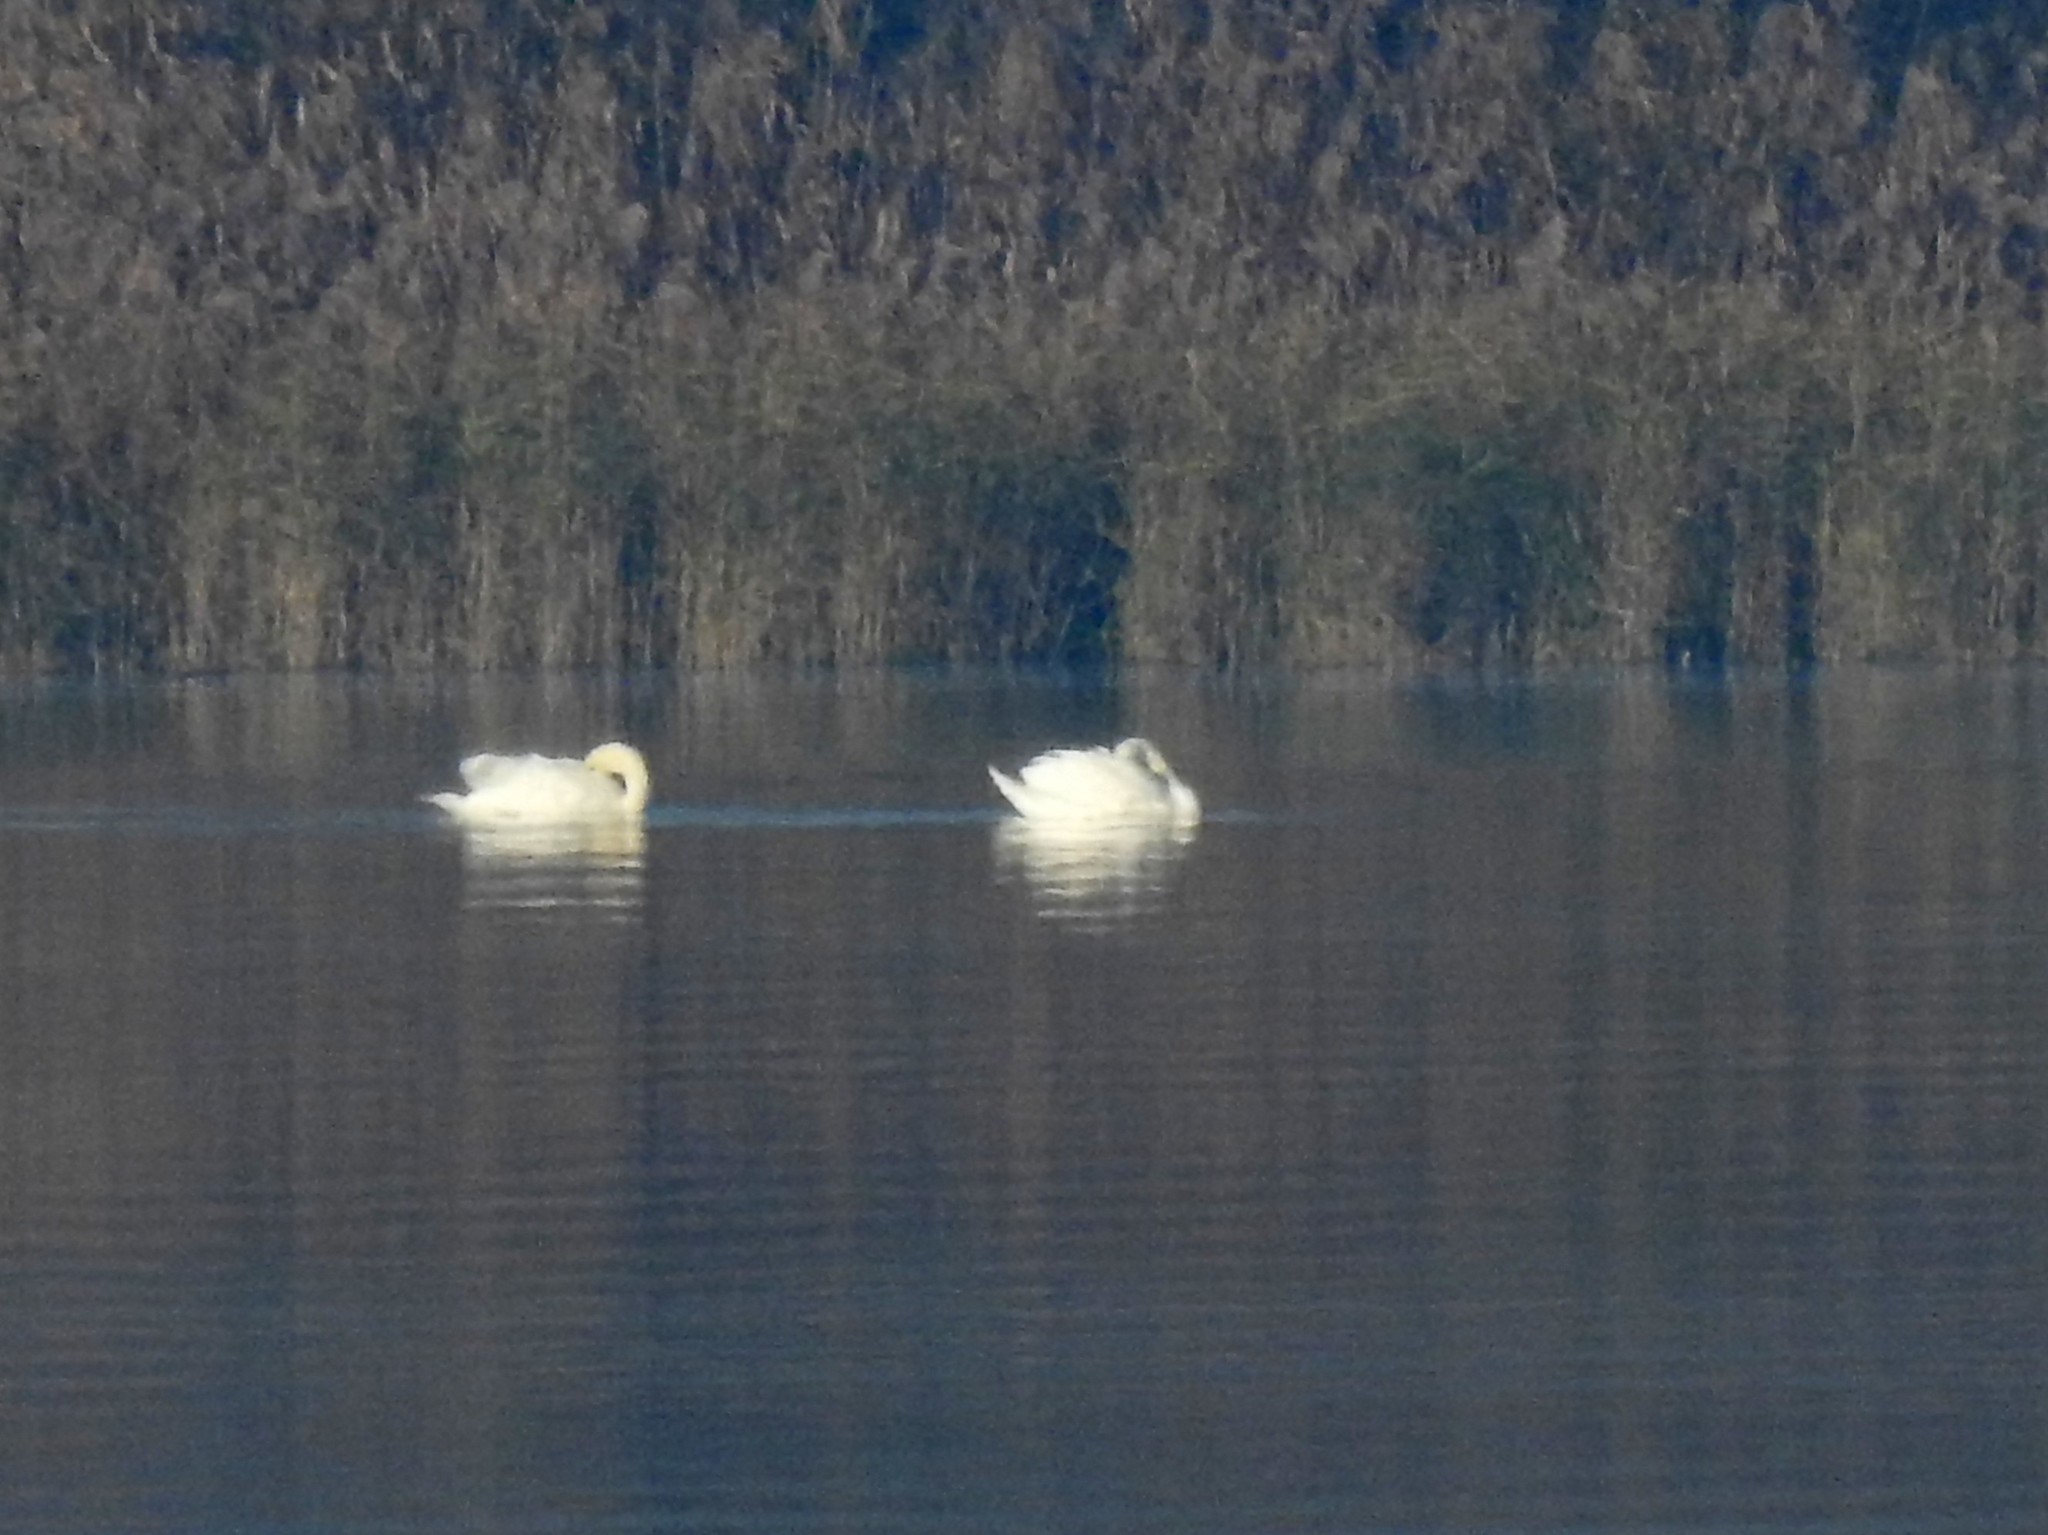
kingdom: Animalia
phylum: Chordata
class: Aves
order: Anseriformes
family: Anatidae
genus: Cygnus
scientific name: Cygnus olor
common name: Mute swan
